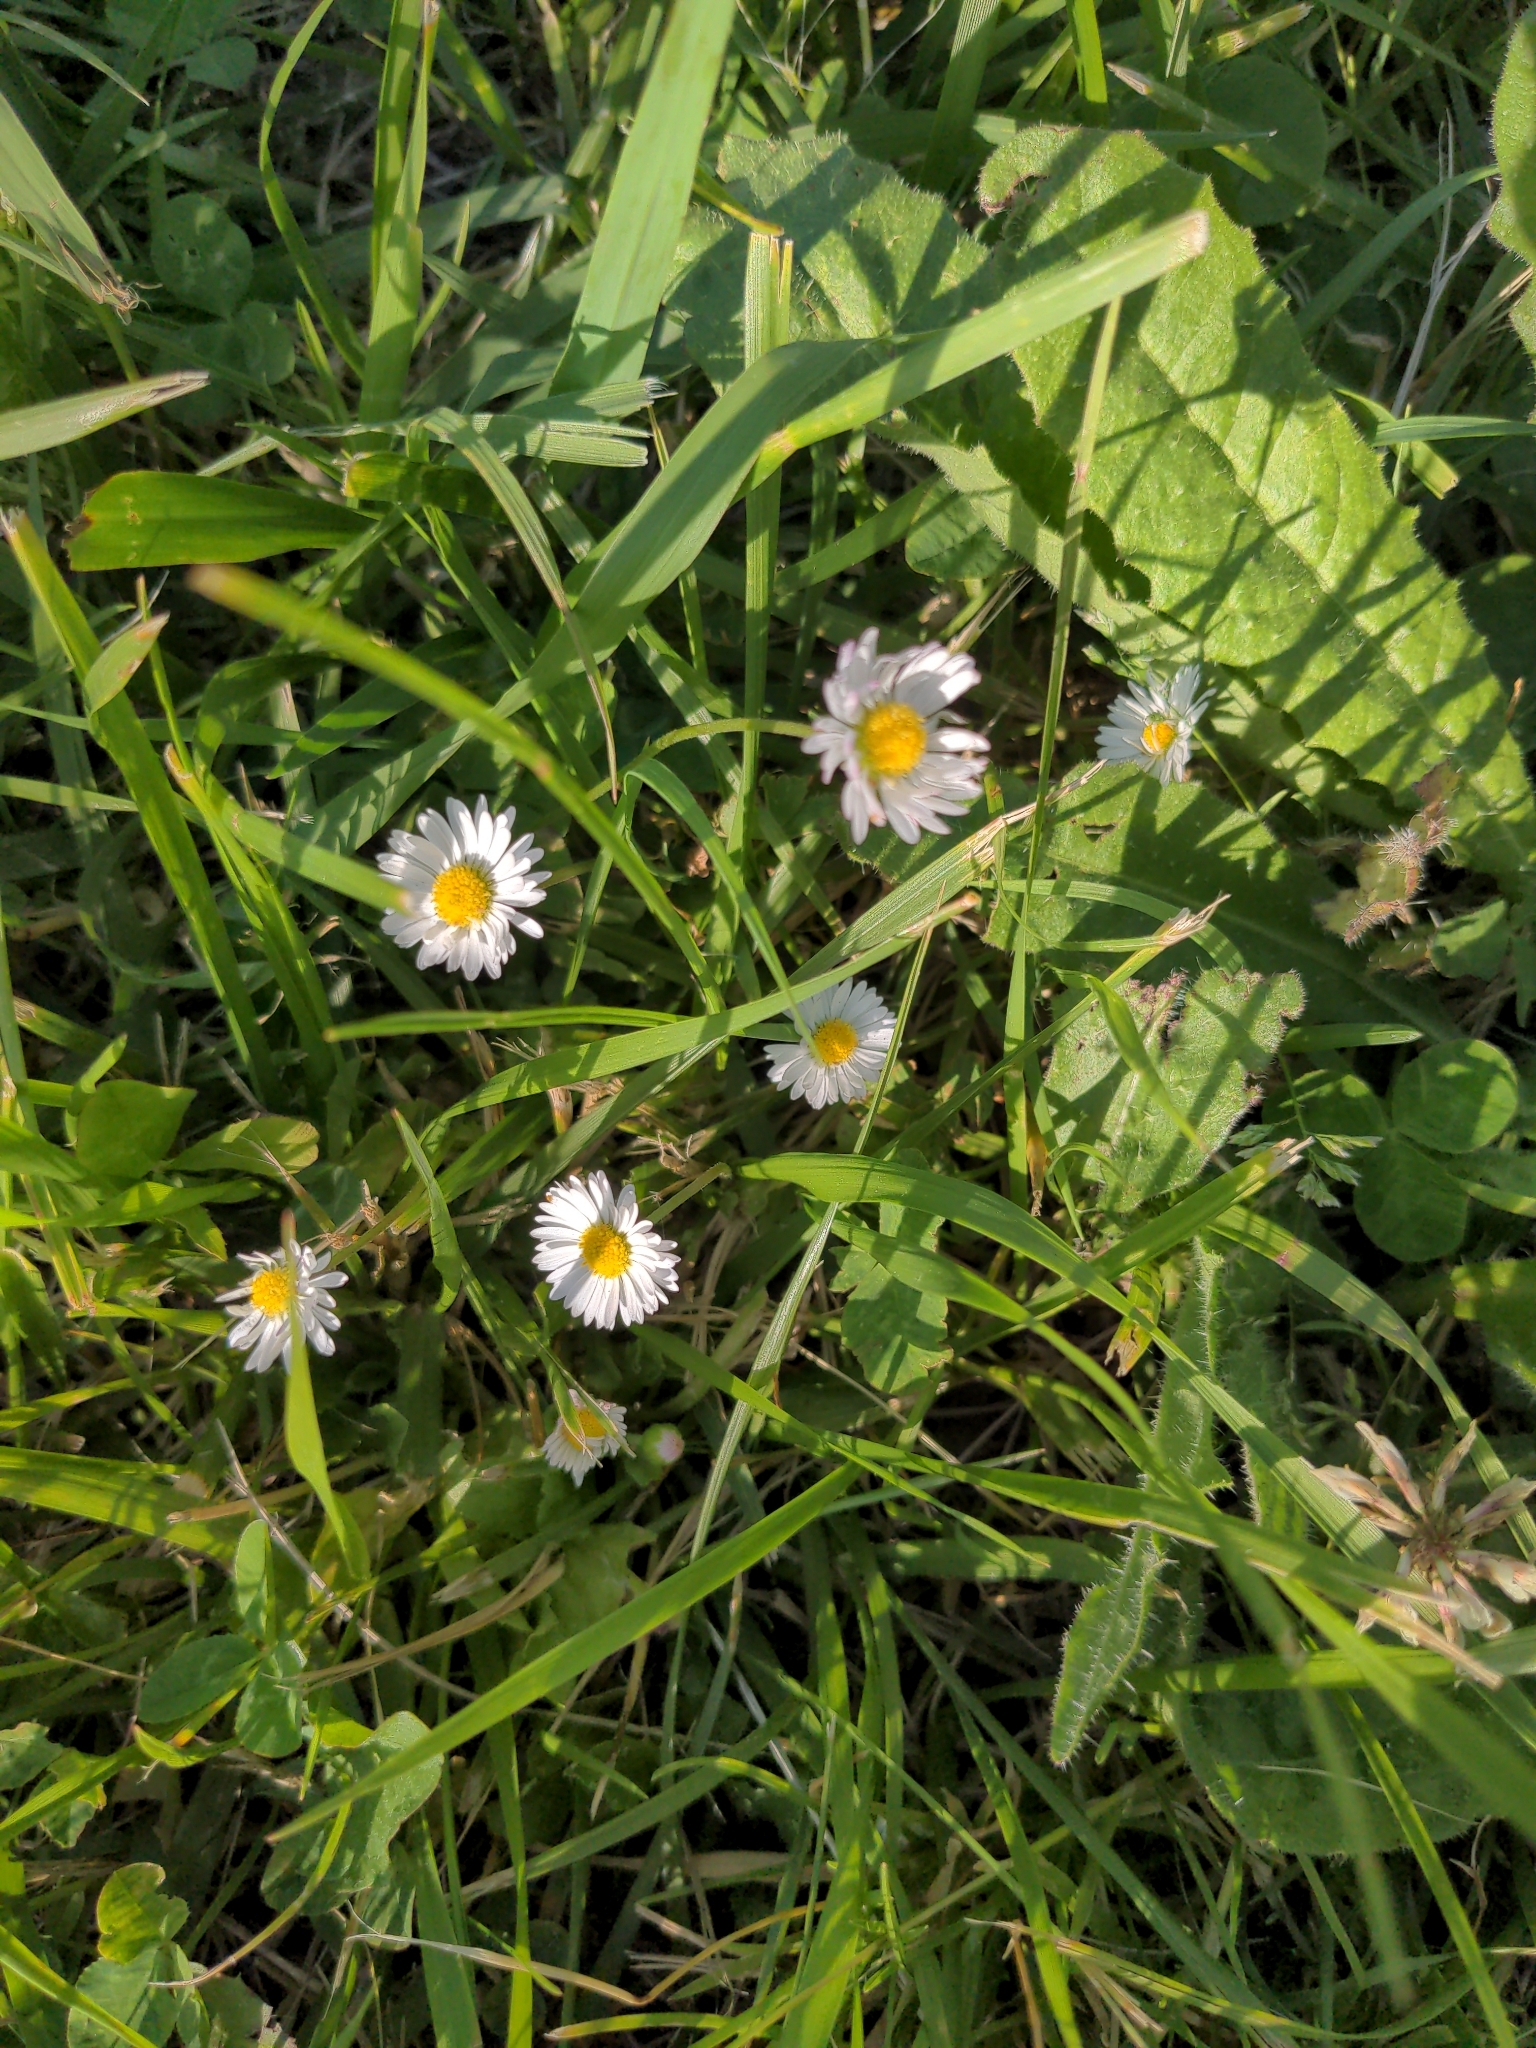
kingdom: Plantae
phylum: Tracheophyta
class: Magnoliopsida
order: Asterales
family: Asteraceae
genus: Bellis
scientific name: Bellis perennis
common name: Lawndaisy
